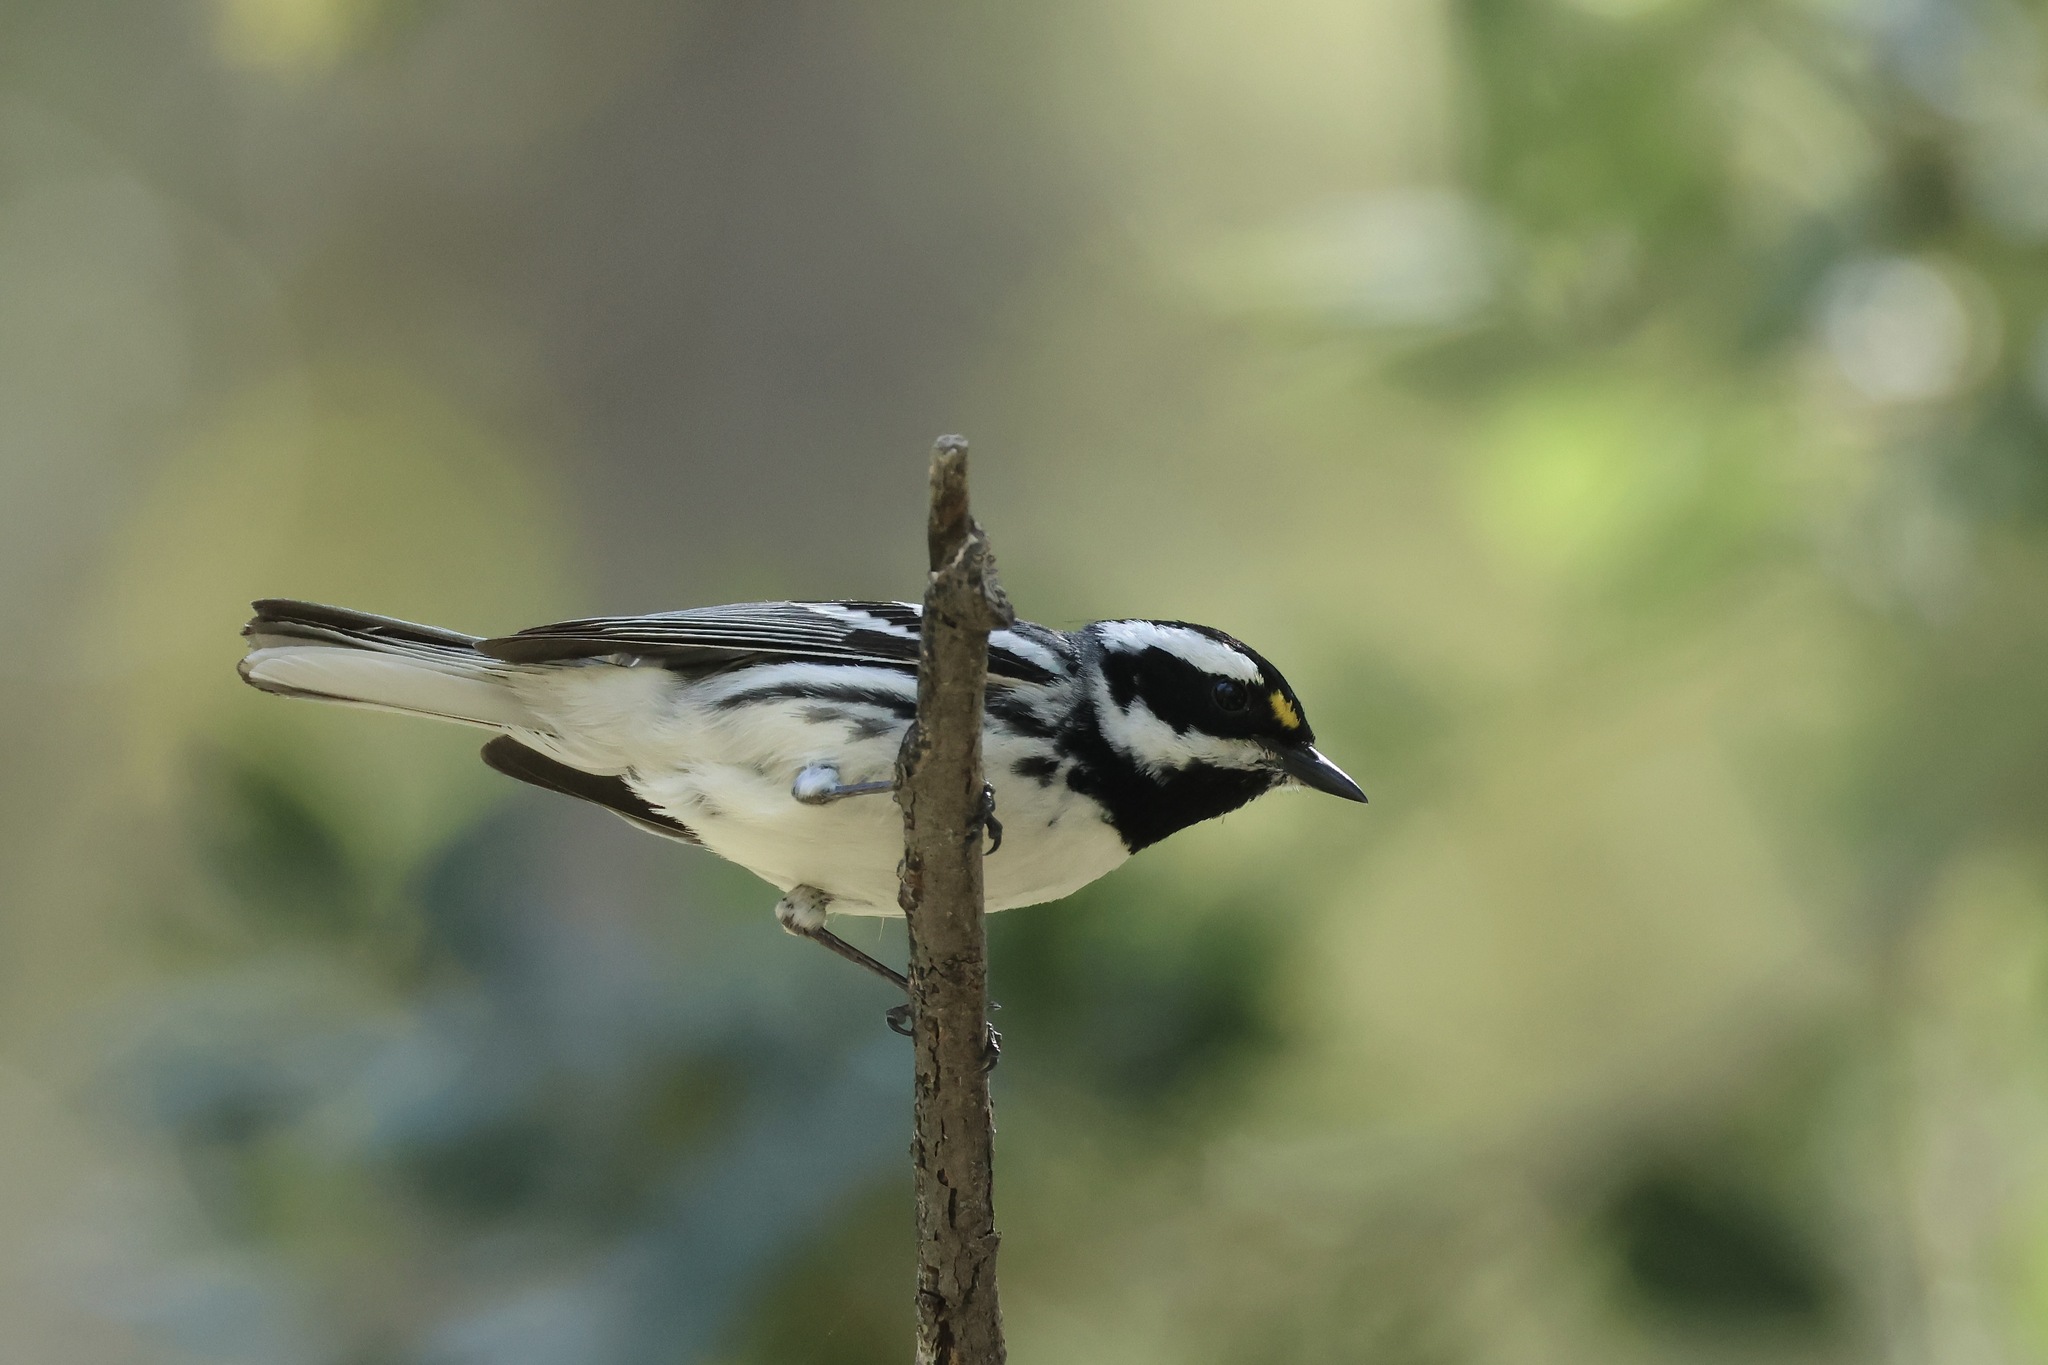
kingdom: Animalia
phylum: Chordata
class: Aves
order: Passeriformes
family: Parulidae
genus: Setophaga
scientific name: Setophaga nigrescens
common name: Black-throated gray warbler
